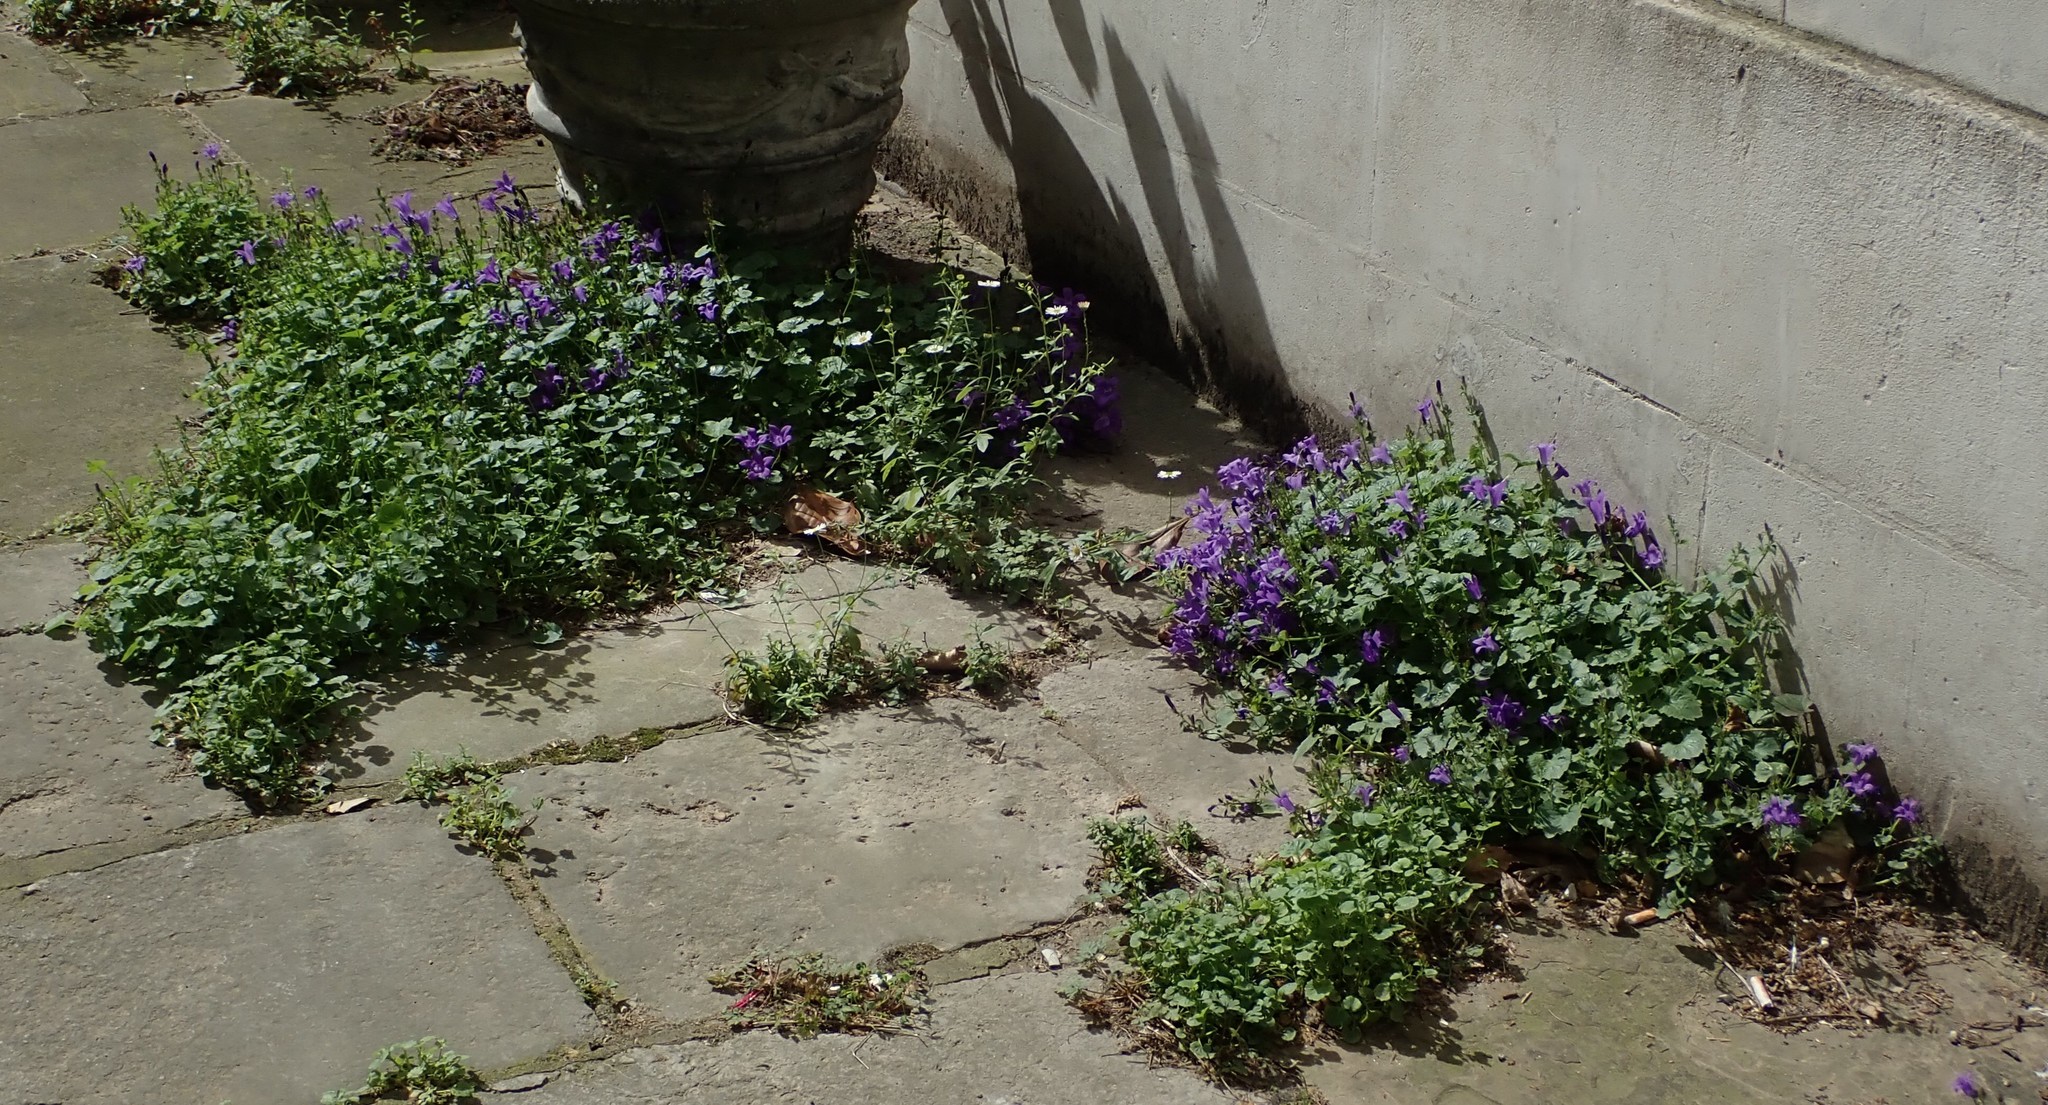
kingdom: Plantae
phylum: Tracheophyta
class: Magnoliopsida
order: Asterales
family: Campanulaceae
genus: Campanula
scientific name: Campanula portenschlagiana
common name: Adria bellflower
